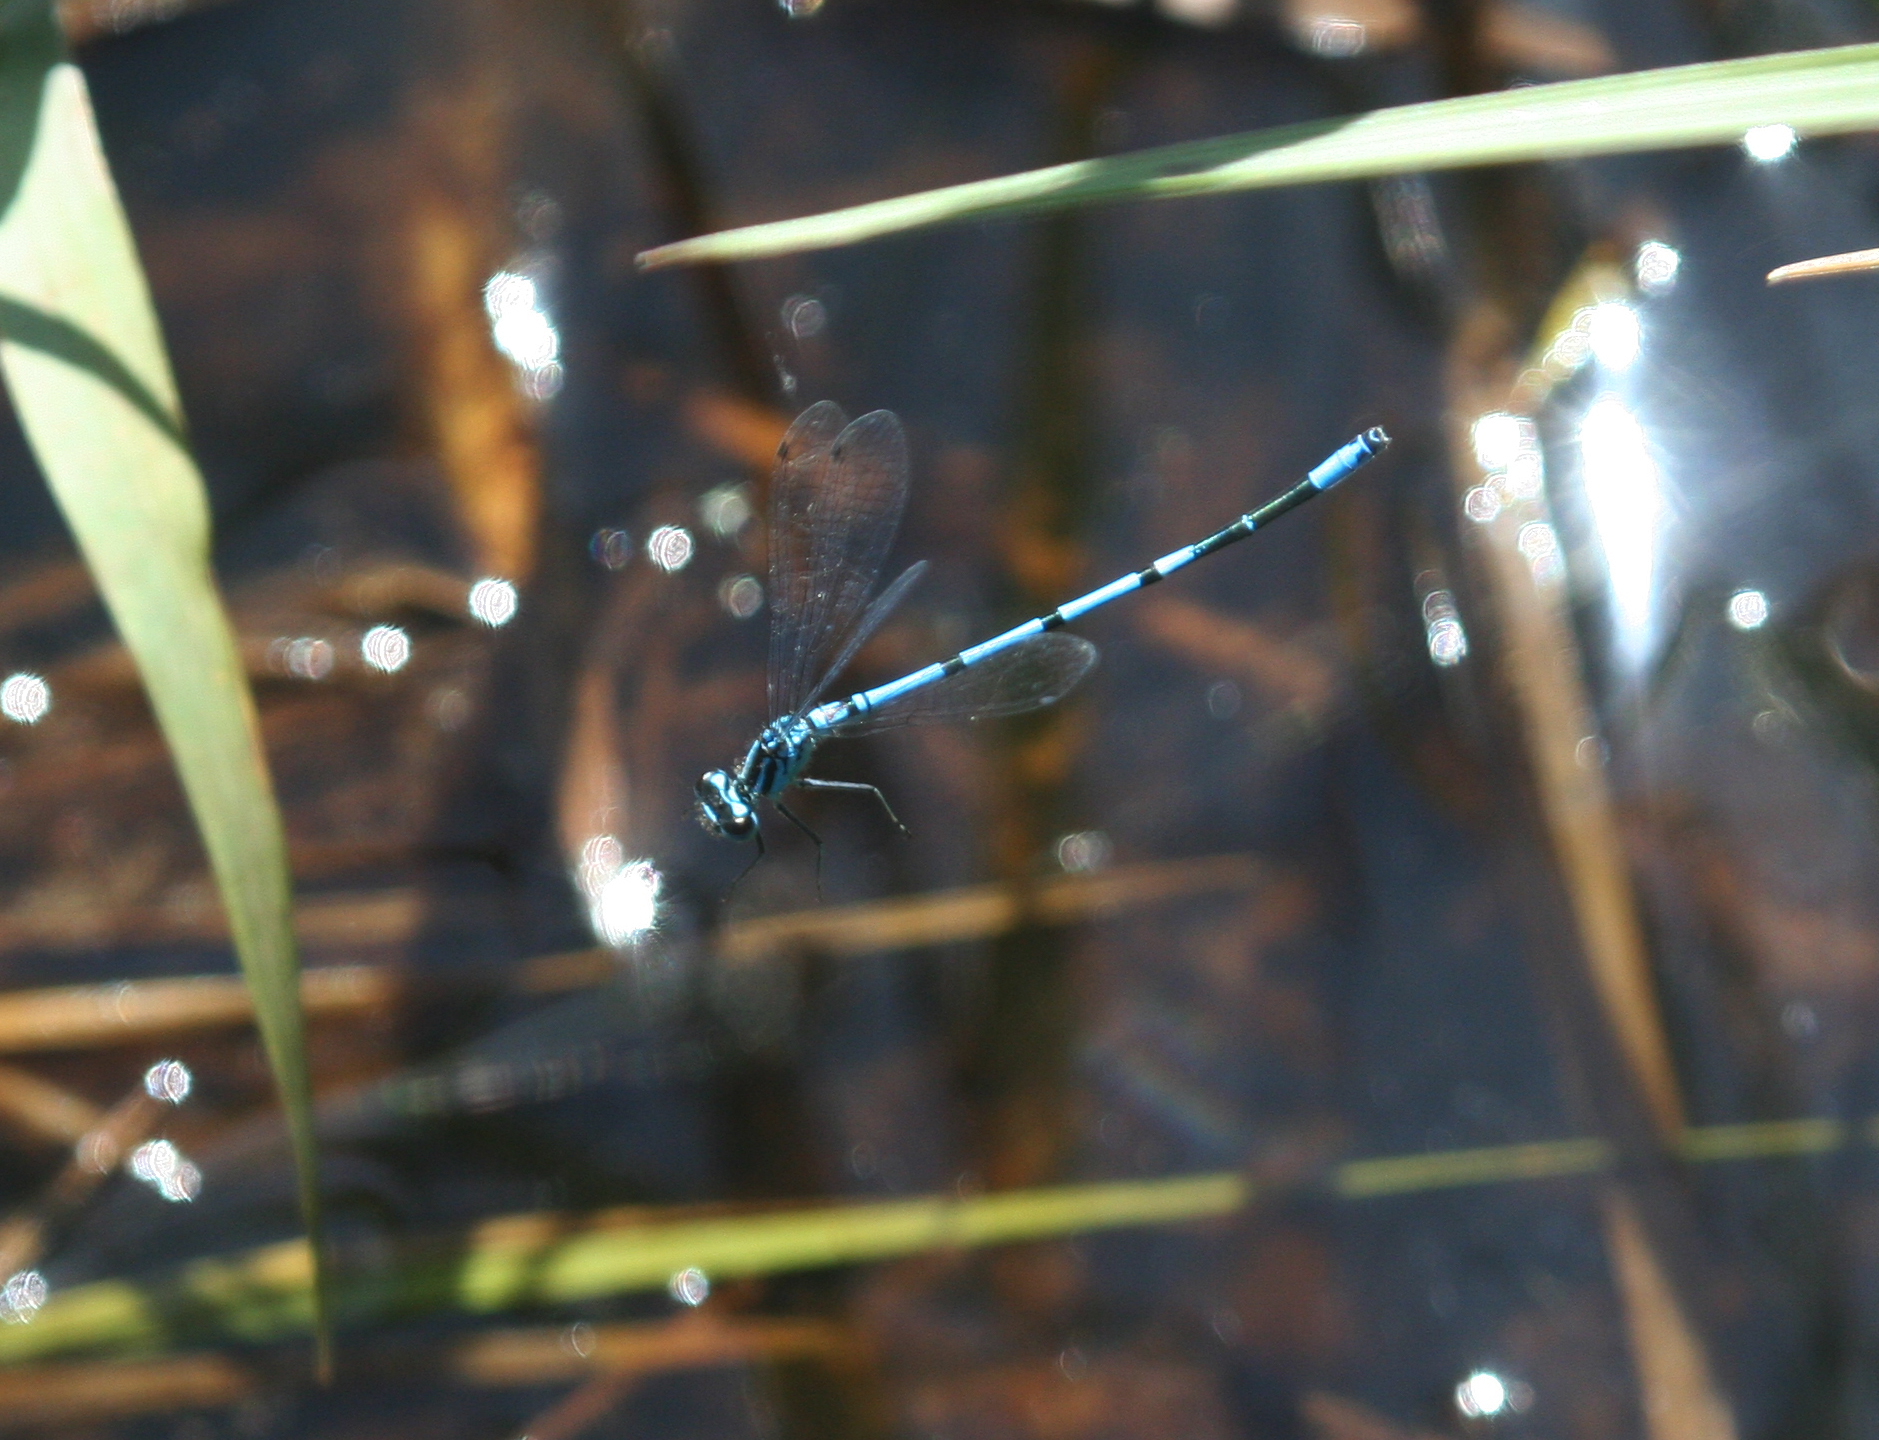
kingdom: Animalia
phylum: Arthropoda
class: Insecta
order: Odonata
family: Coenagrionidae
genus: Coenagrion
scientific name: Coenagrion puella
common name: Azure damselfly
